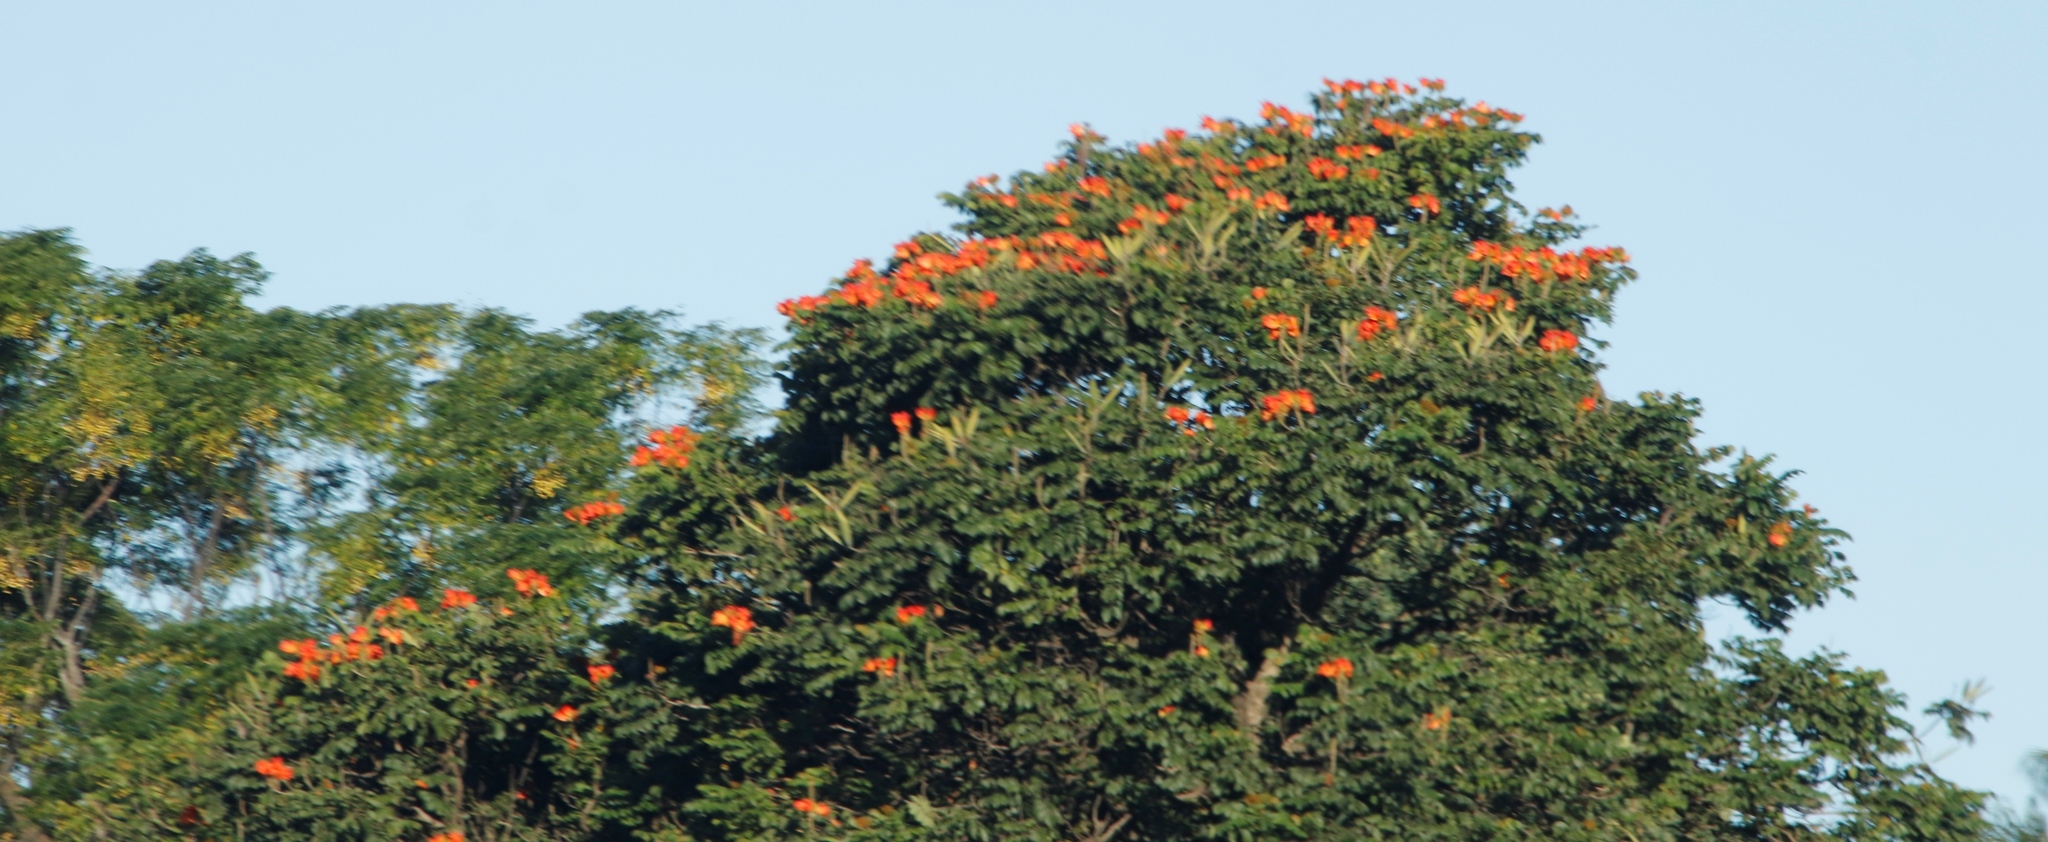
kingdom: Plantae
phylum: Tracheophyta
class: Magnoliopsida
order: Lamiales
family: Bignoniaceae
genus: Spathodea
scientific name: Spathodea campanulata
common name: African tuliptree
